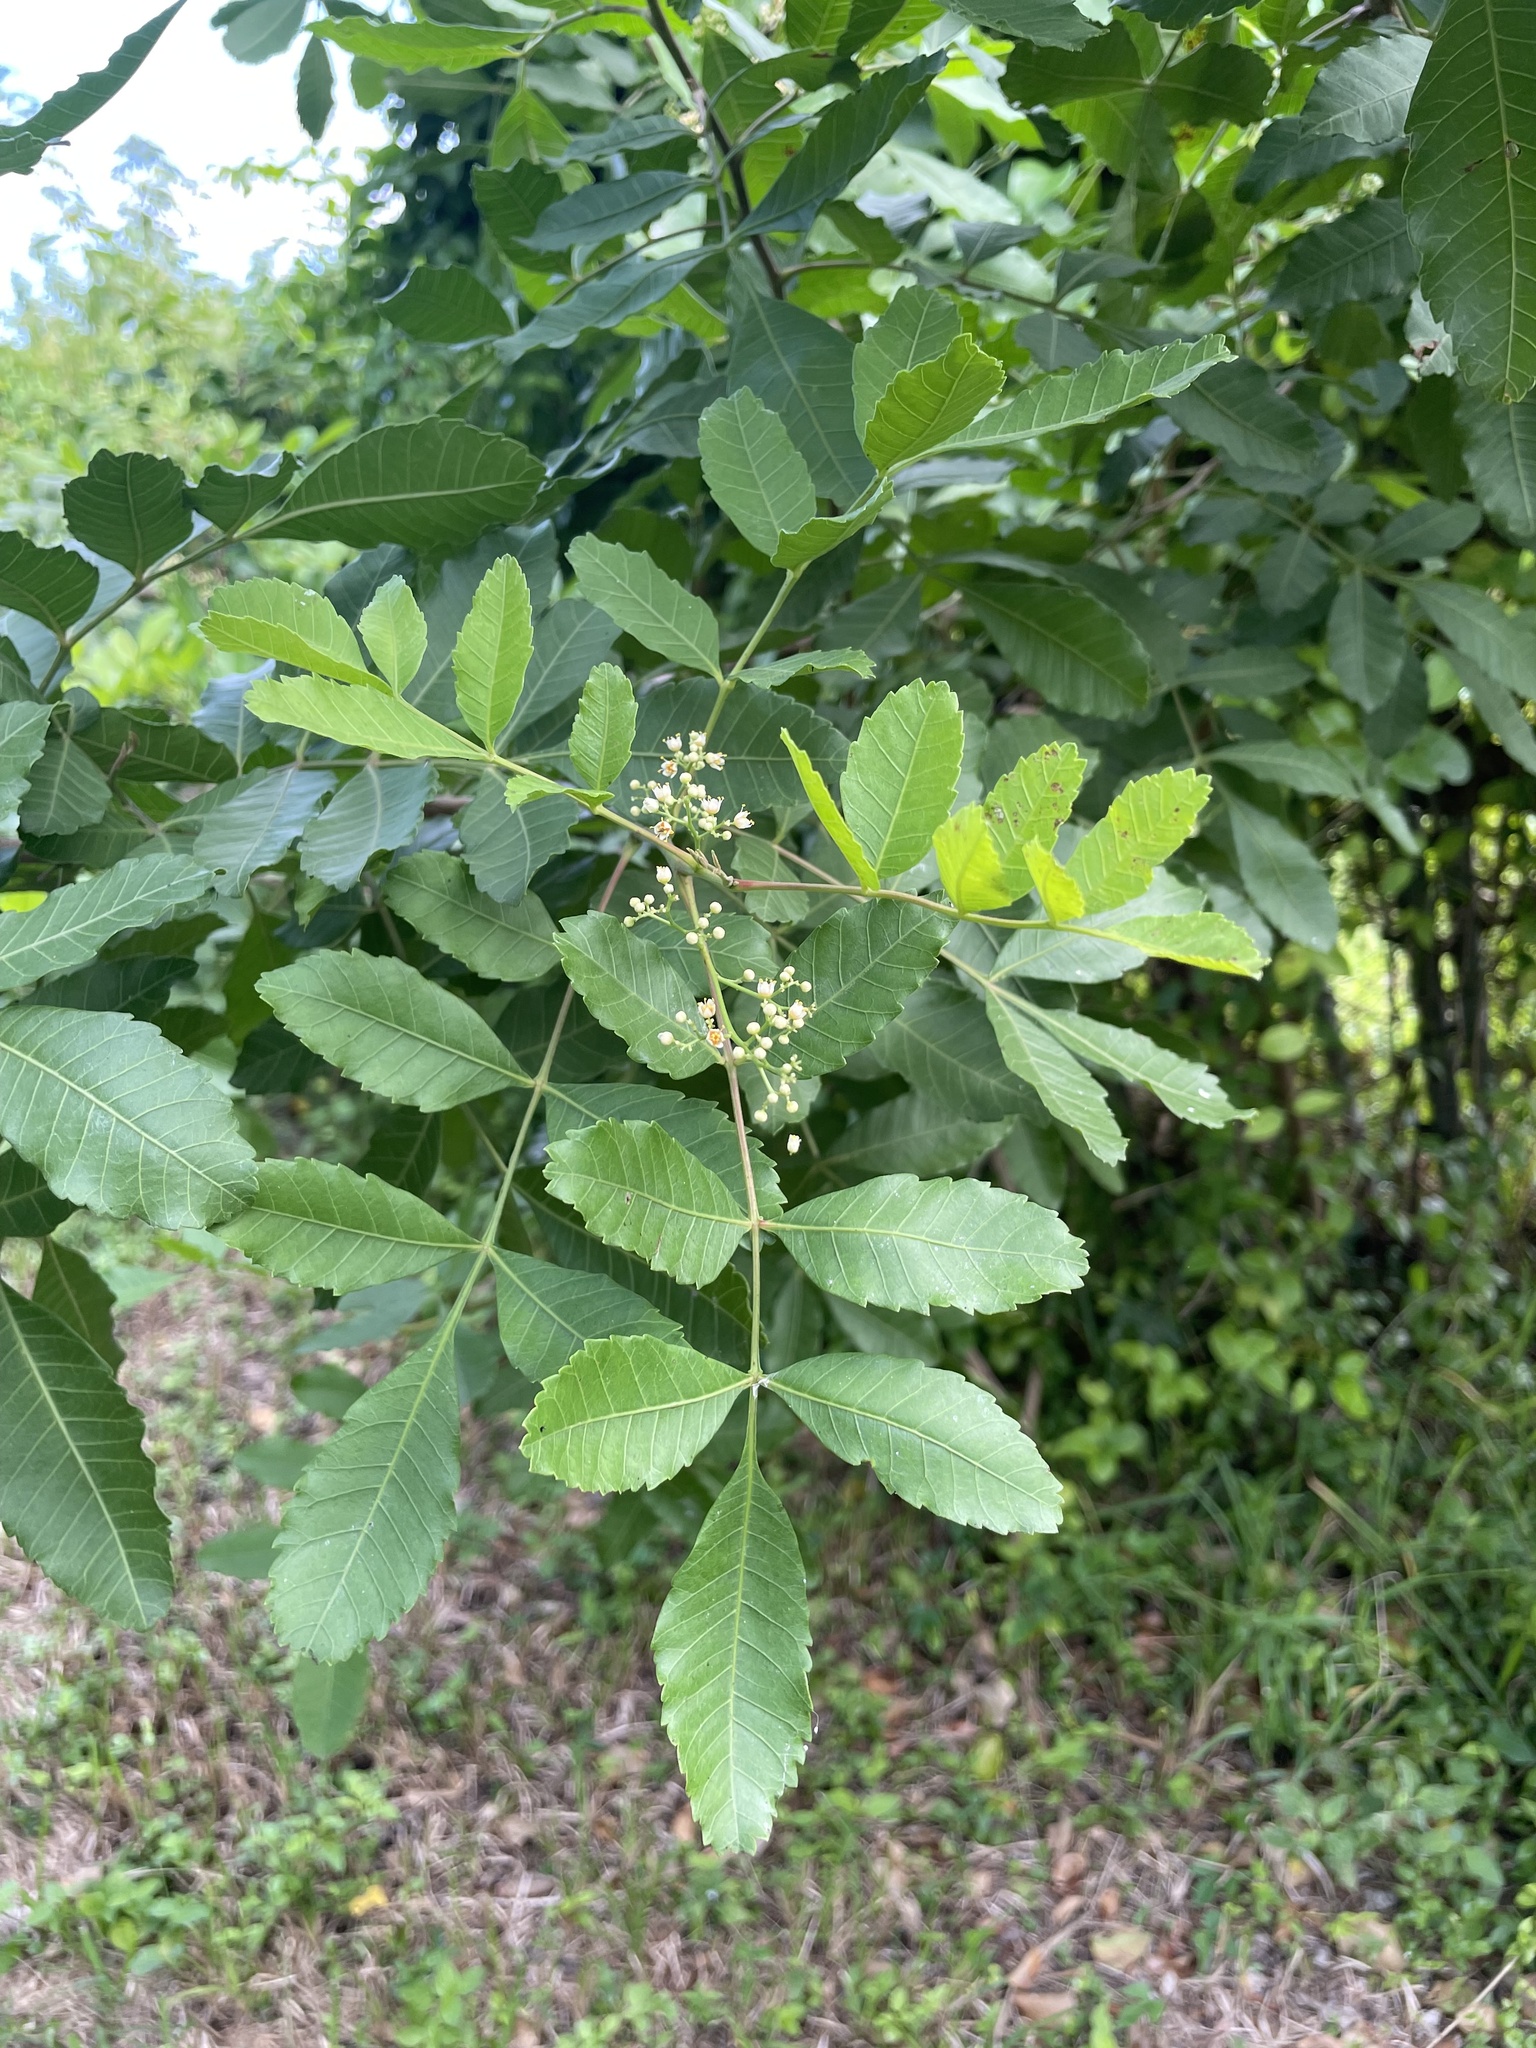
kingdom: Plantae
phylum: Tracheophyta
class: Magnoliopsida
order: Sapindales
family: Anacardiaceae
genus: Schinus
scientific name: Schinus terebinthifolia
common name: Brazilian peppertree
